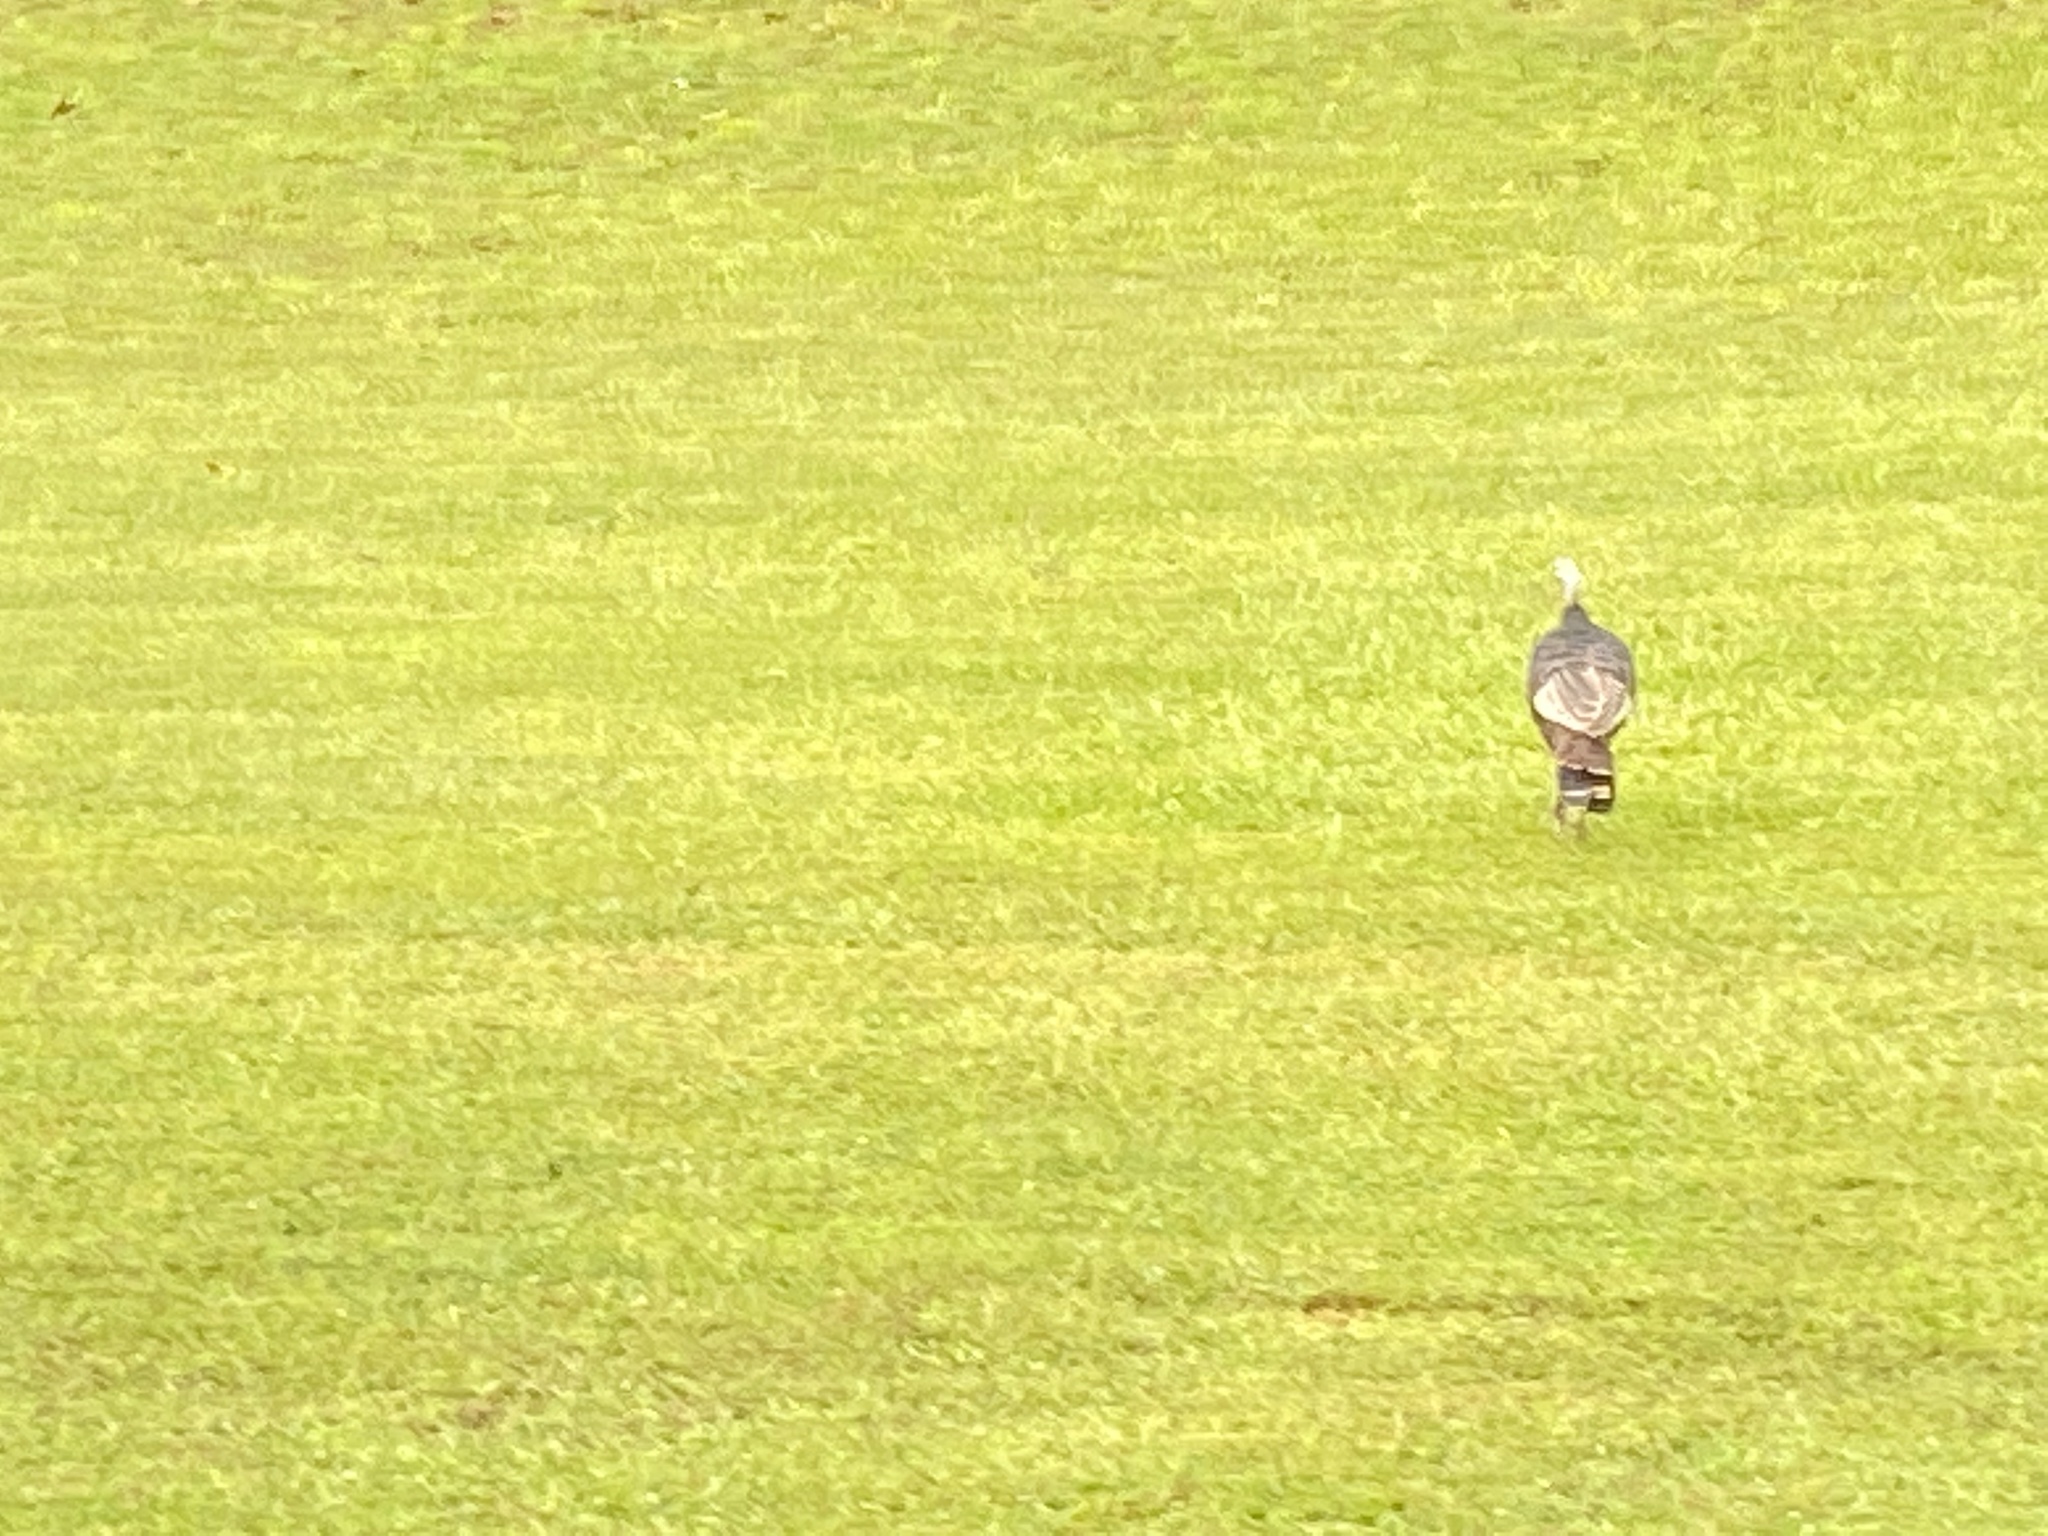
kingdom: Animalia
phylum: Chordata
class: Aves
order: Galliformes
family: Phasianidae
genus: Meleagris
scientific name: Meleagris gallopavo
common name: Wild turkey
